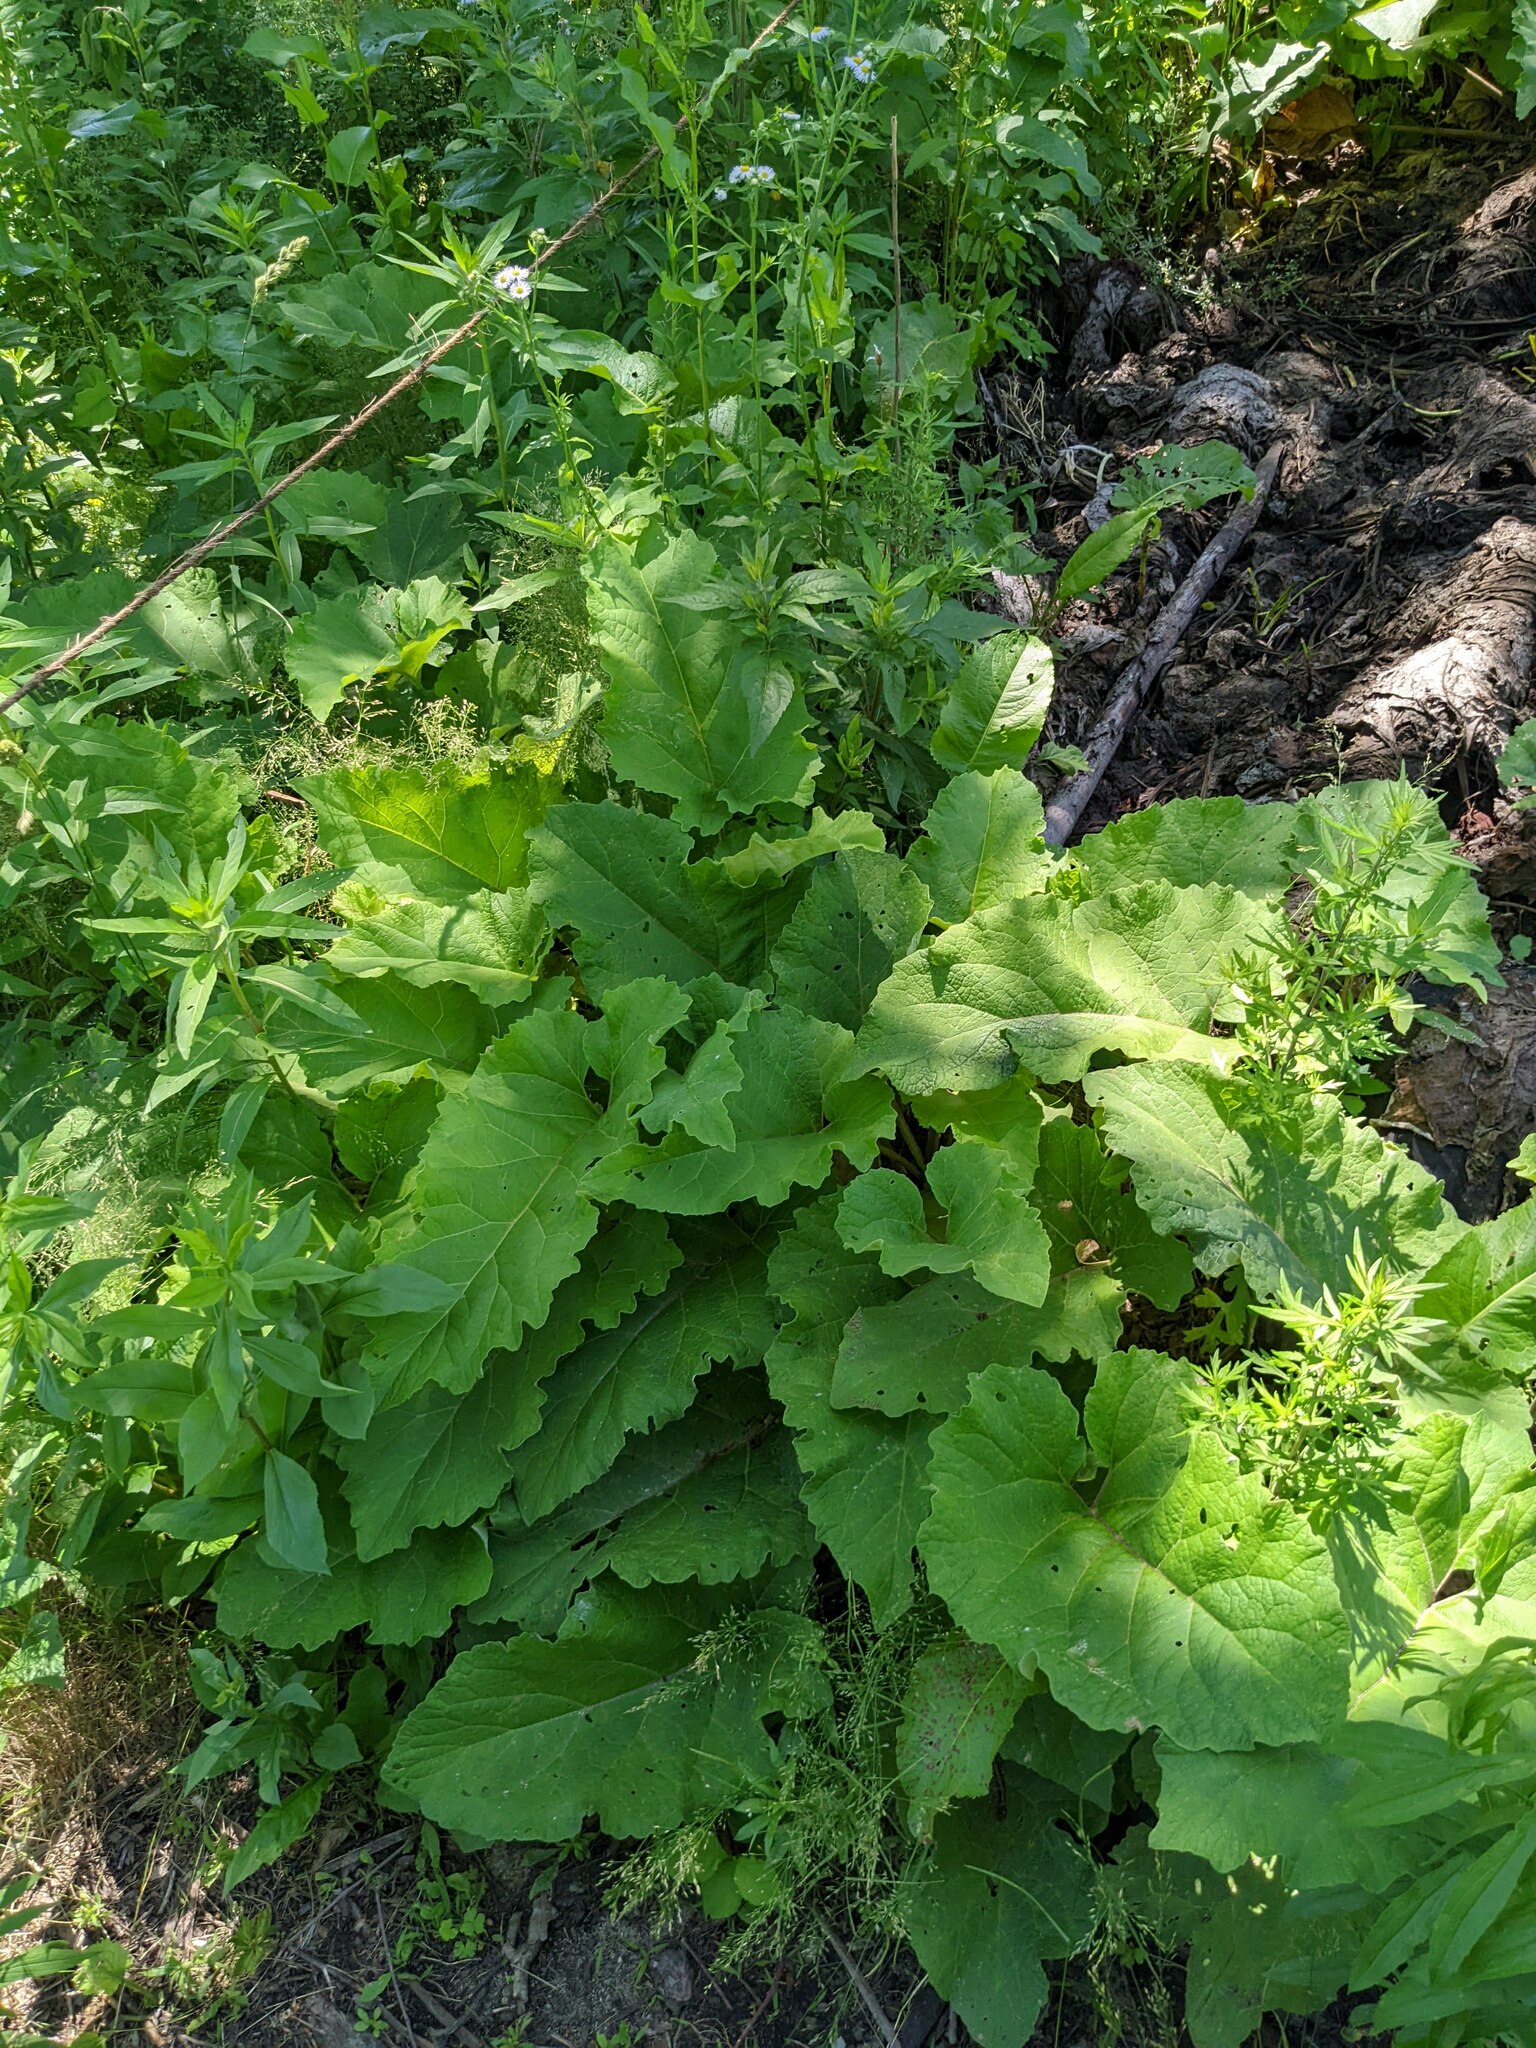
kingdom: Plantae
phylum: Tracheophyta
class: Magnoliopsida
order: Asterales
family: Asteraceae
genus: Arctium
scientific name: Arctium
